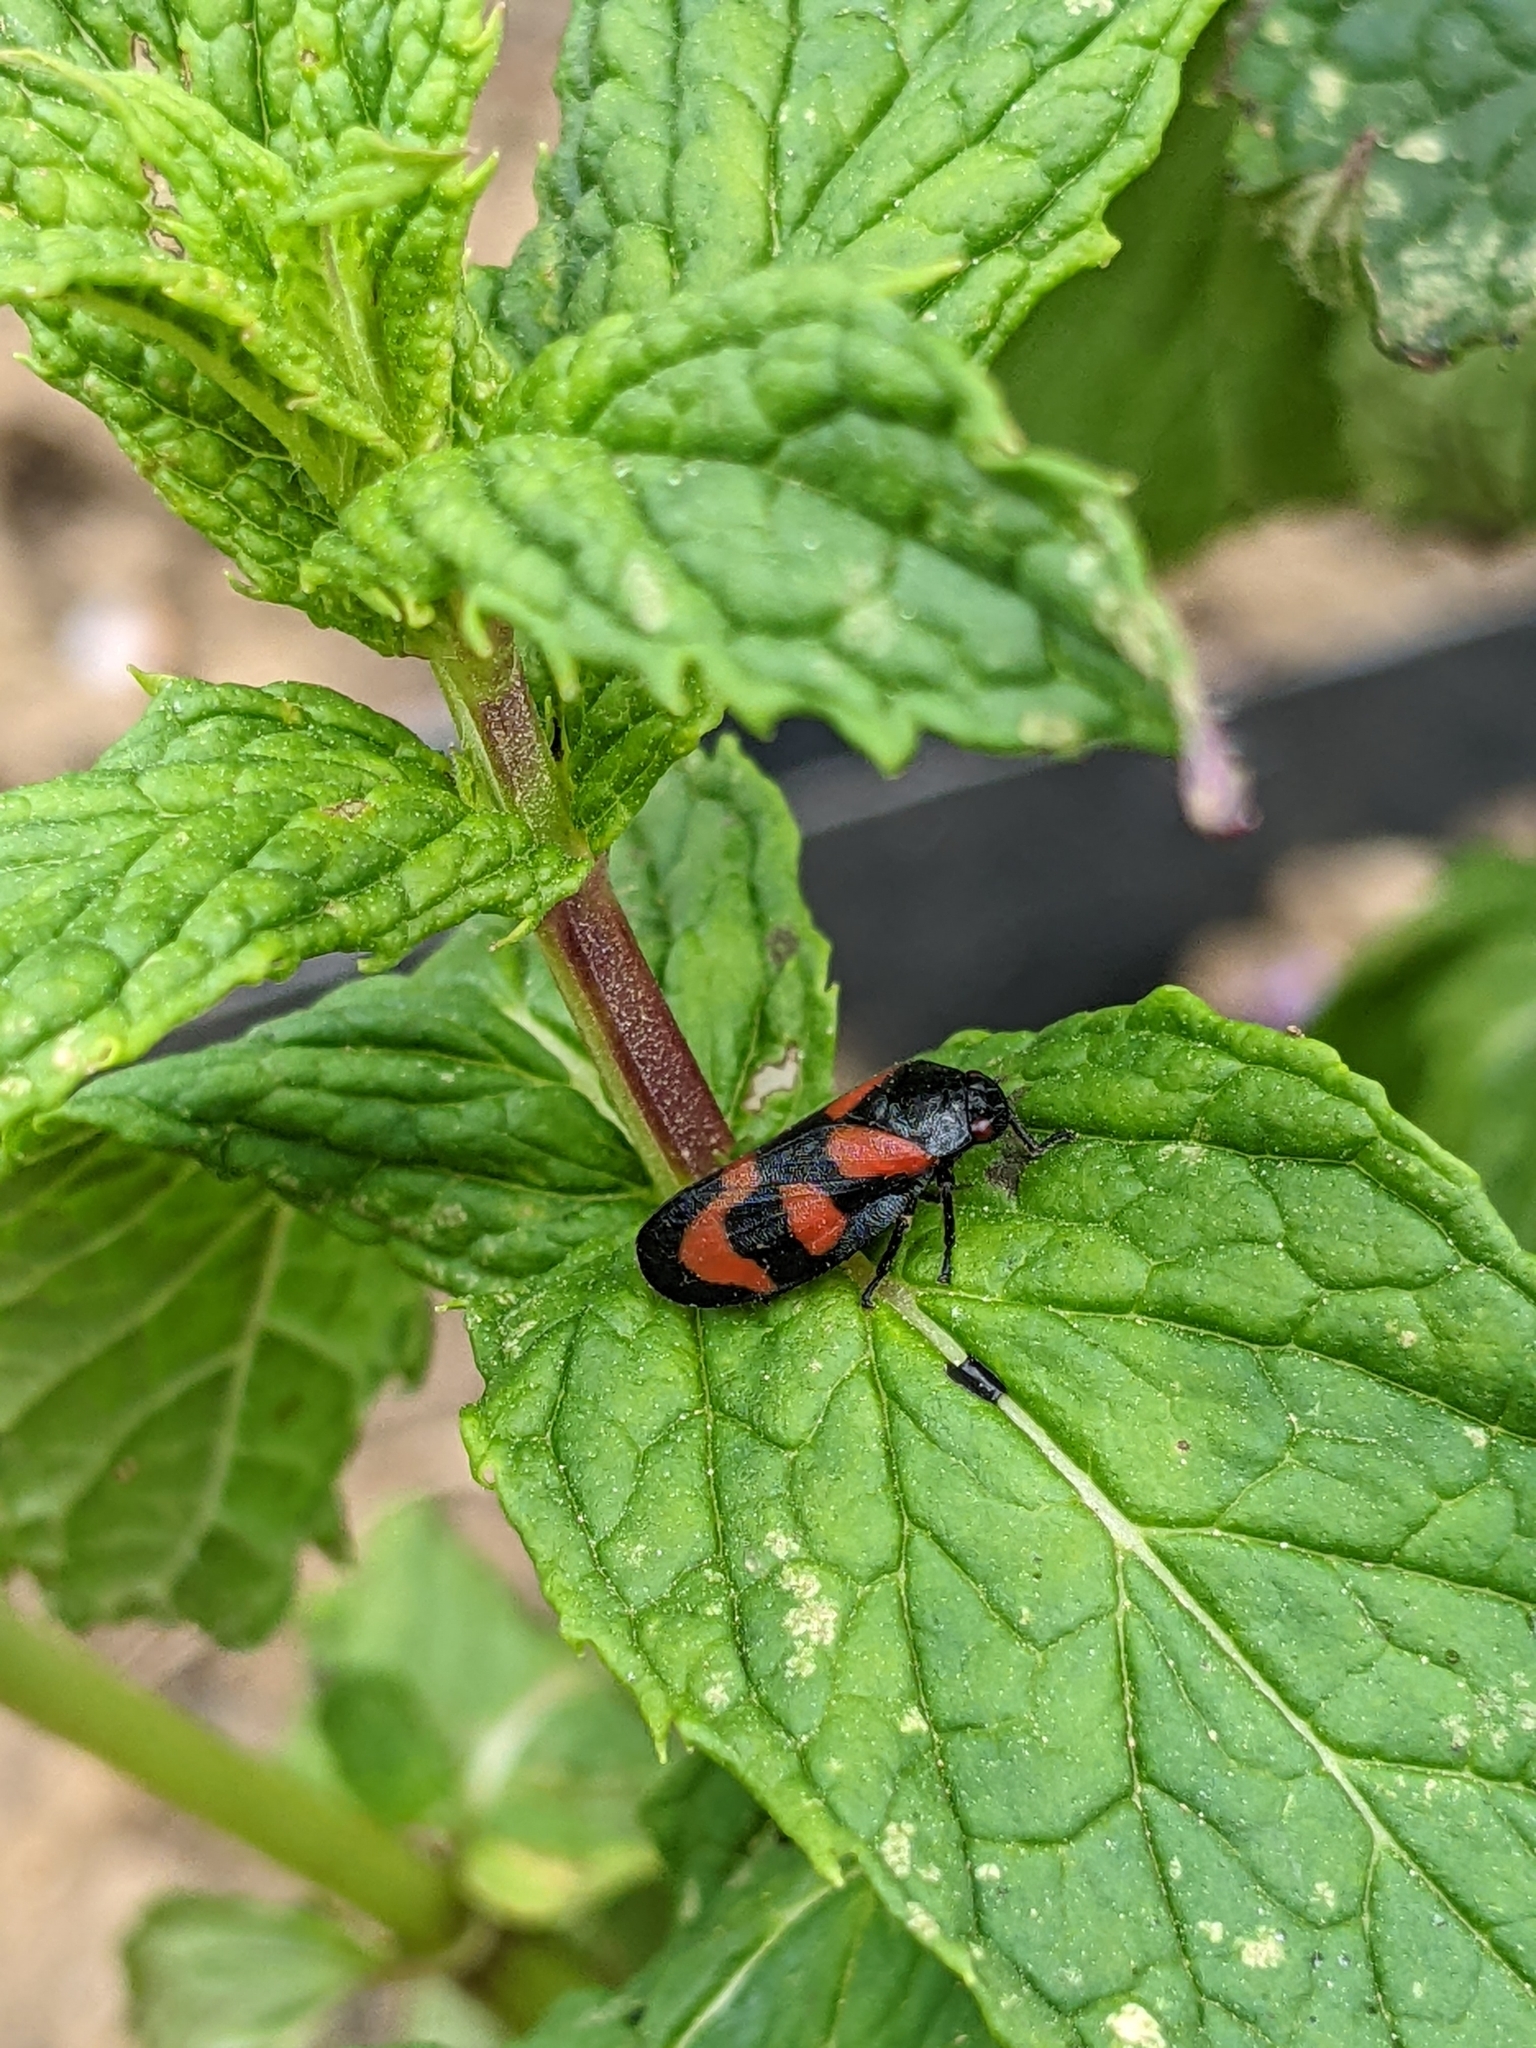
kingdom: Animalia
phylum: Arthropoda
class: Insecta
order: Hemiptera
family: Cercopidae
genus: Cercopis
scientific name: Cercopis vulnerata
